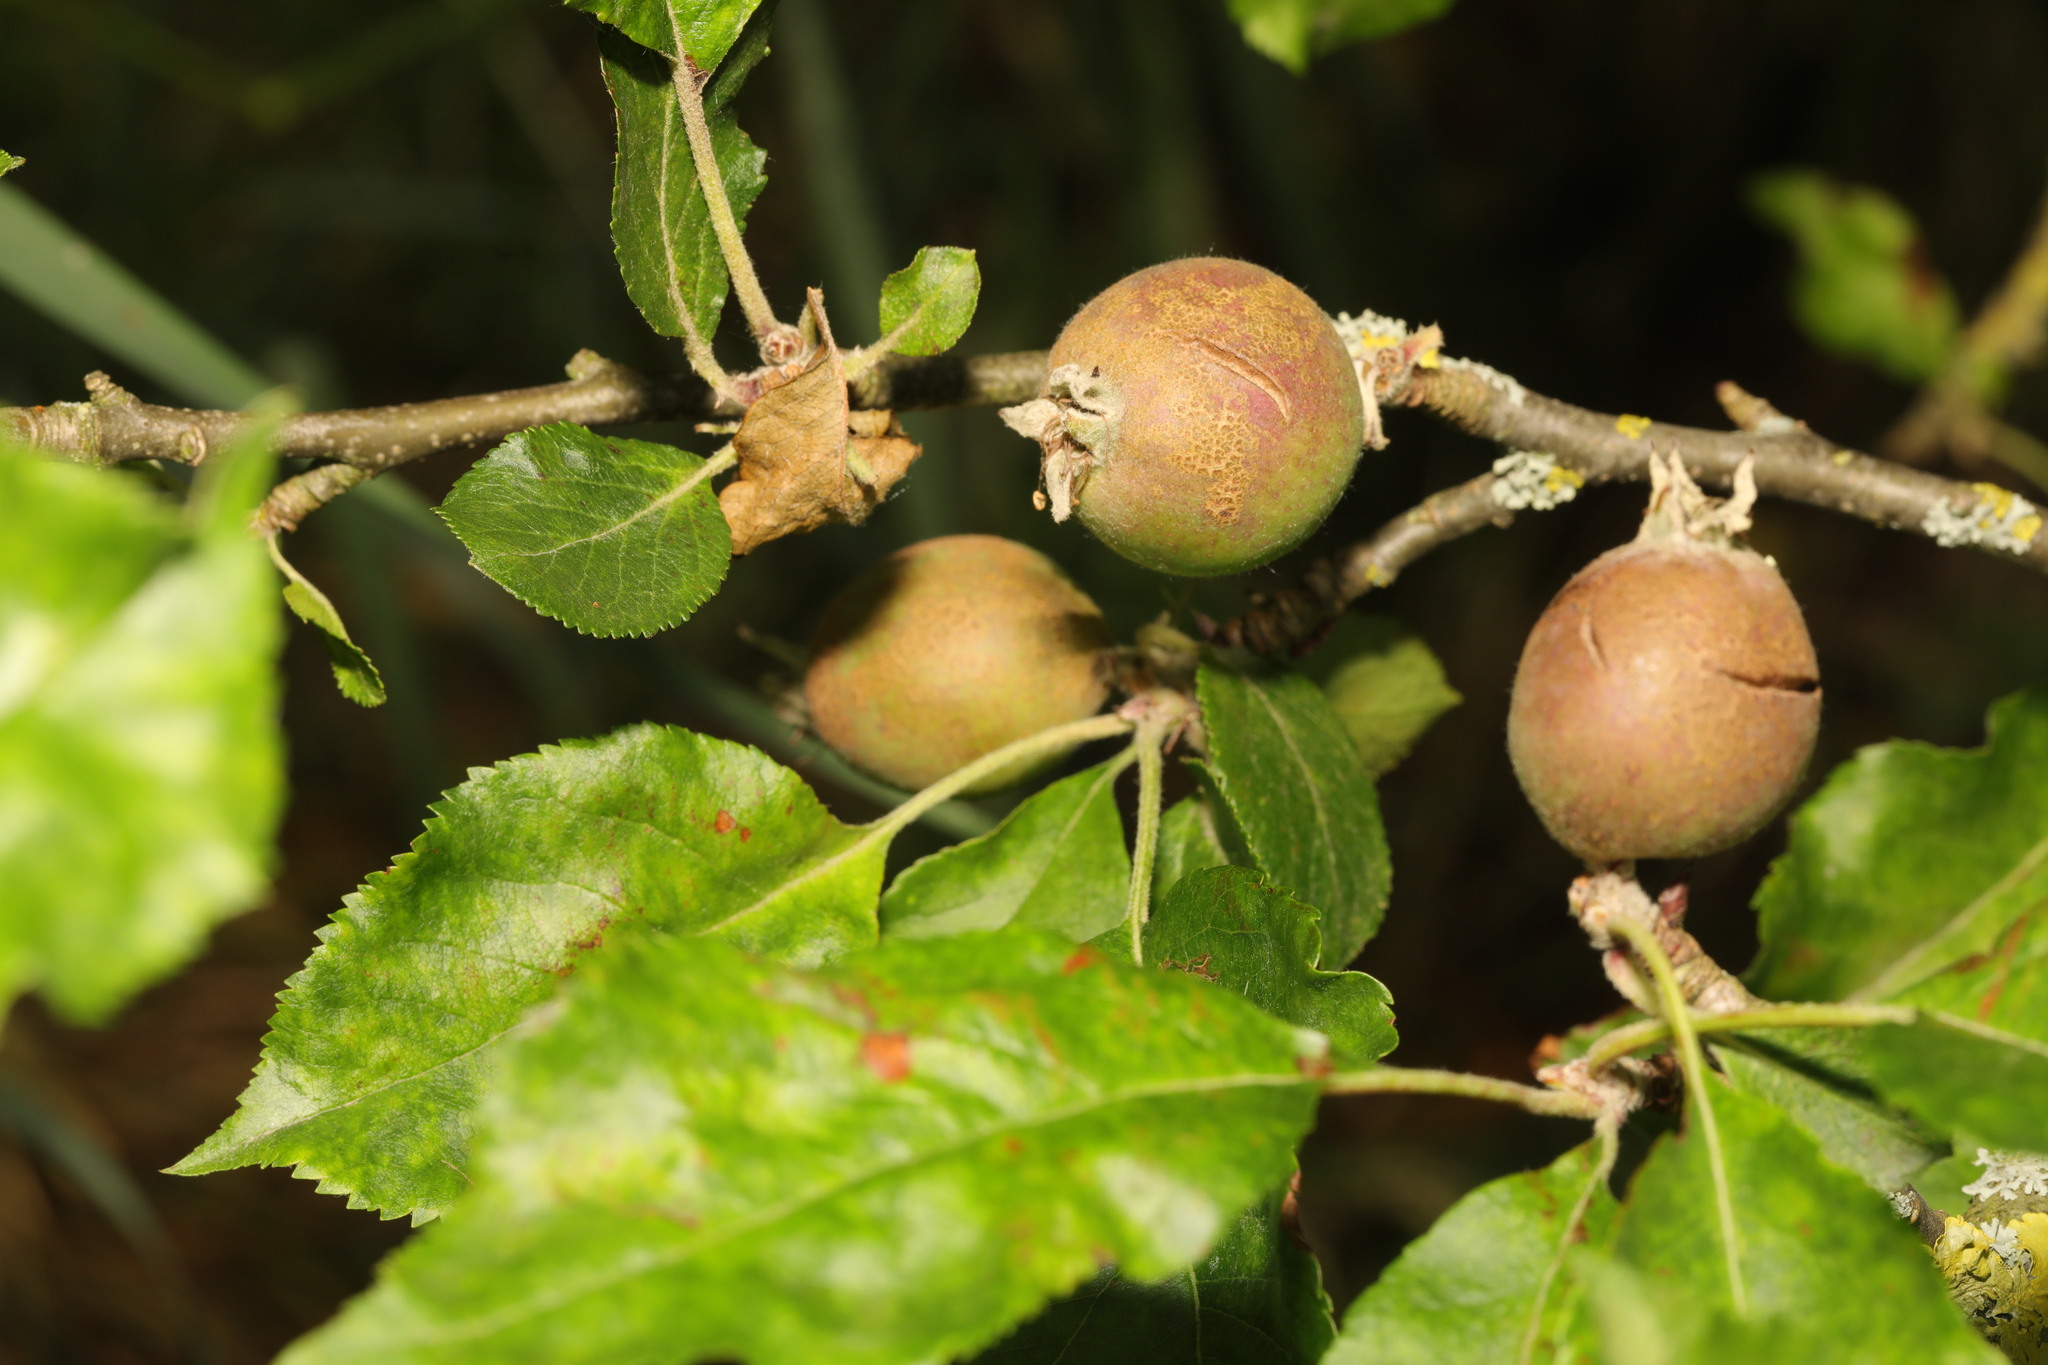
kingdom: Plantae
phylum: Tracheophyta
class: Magnoliopsida
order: Rosales
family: Rosaceae
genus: Malus
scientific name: Malus domestica
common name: Apple
